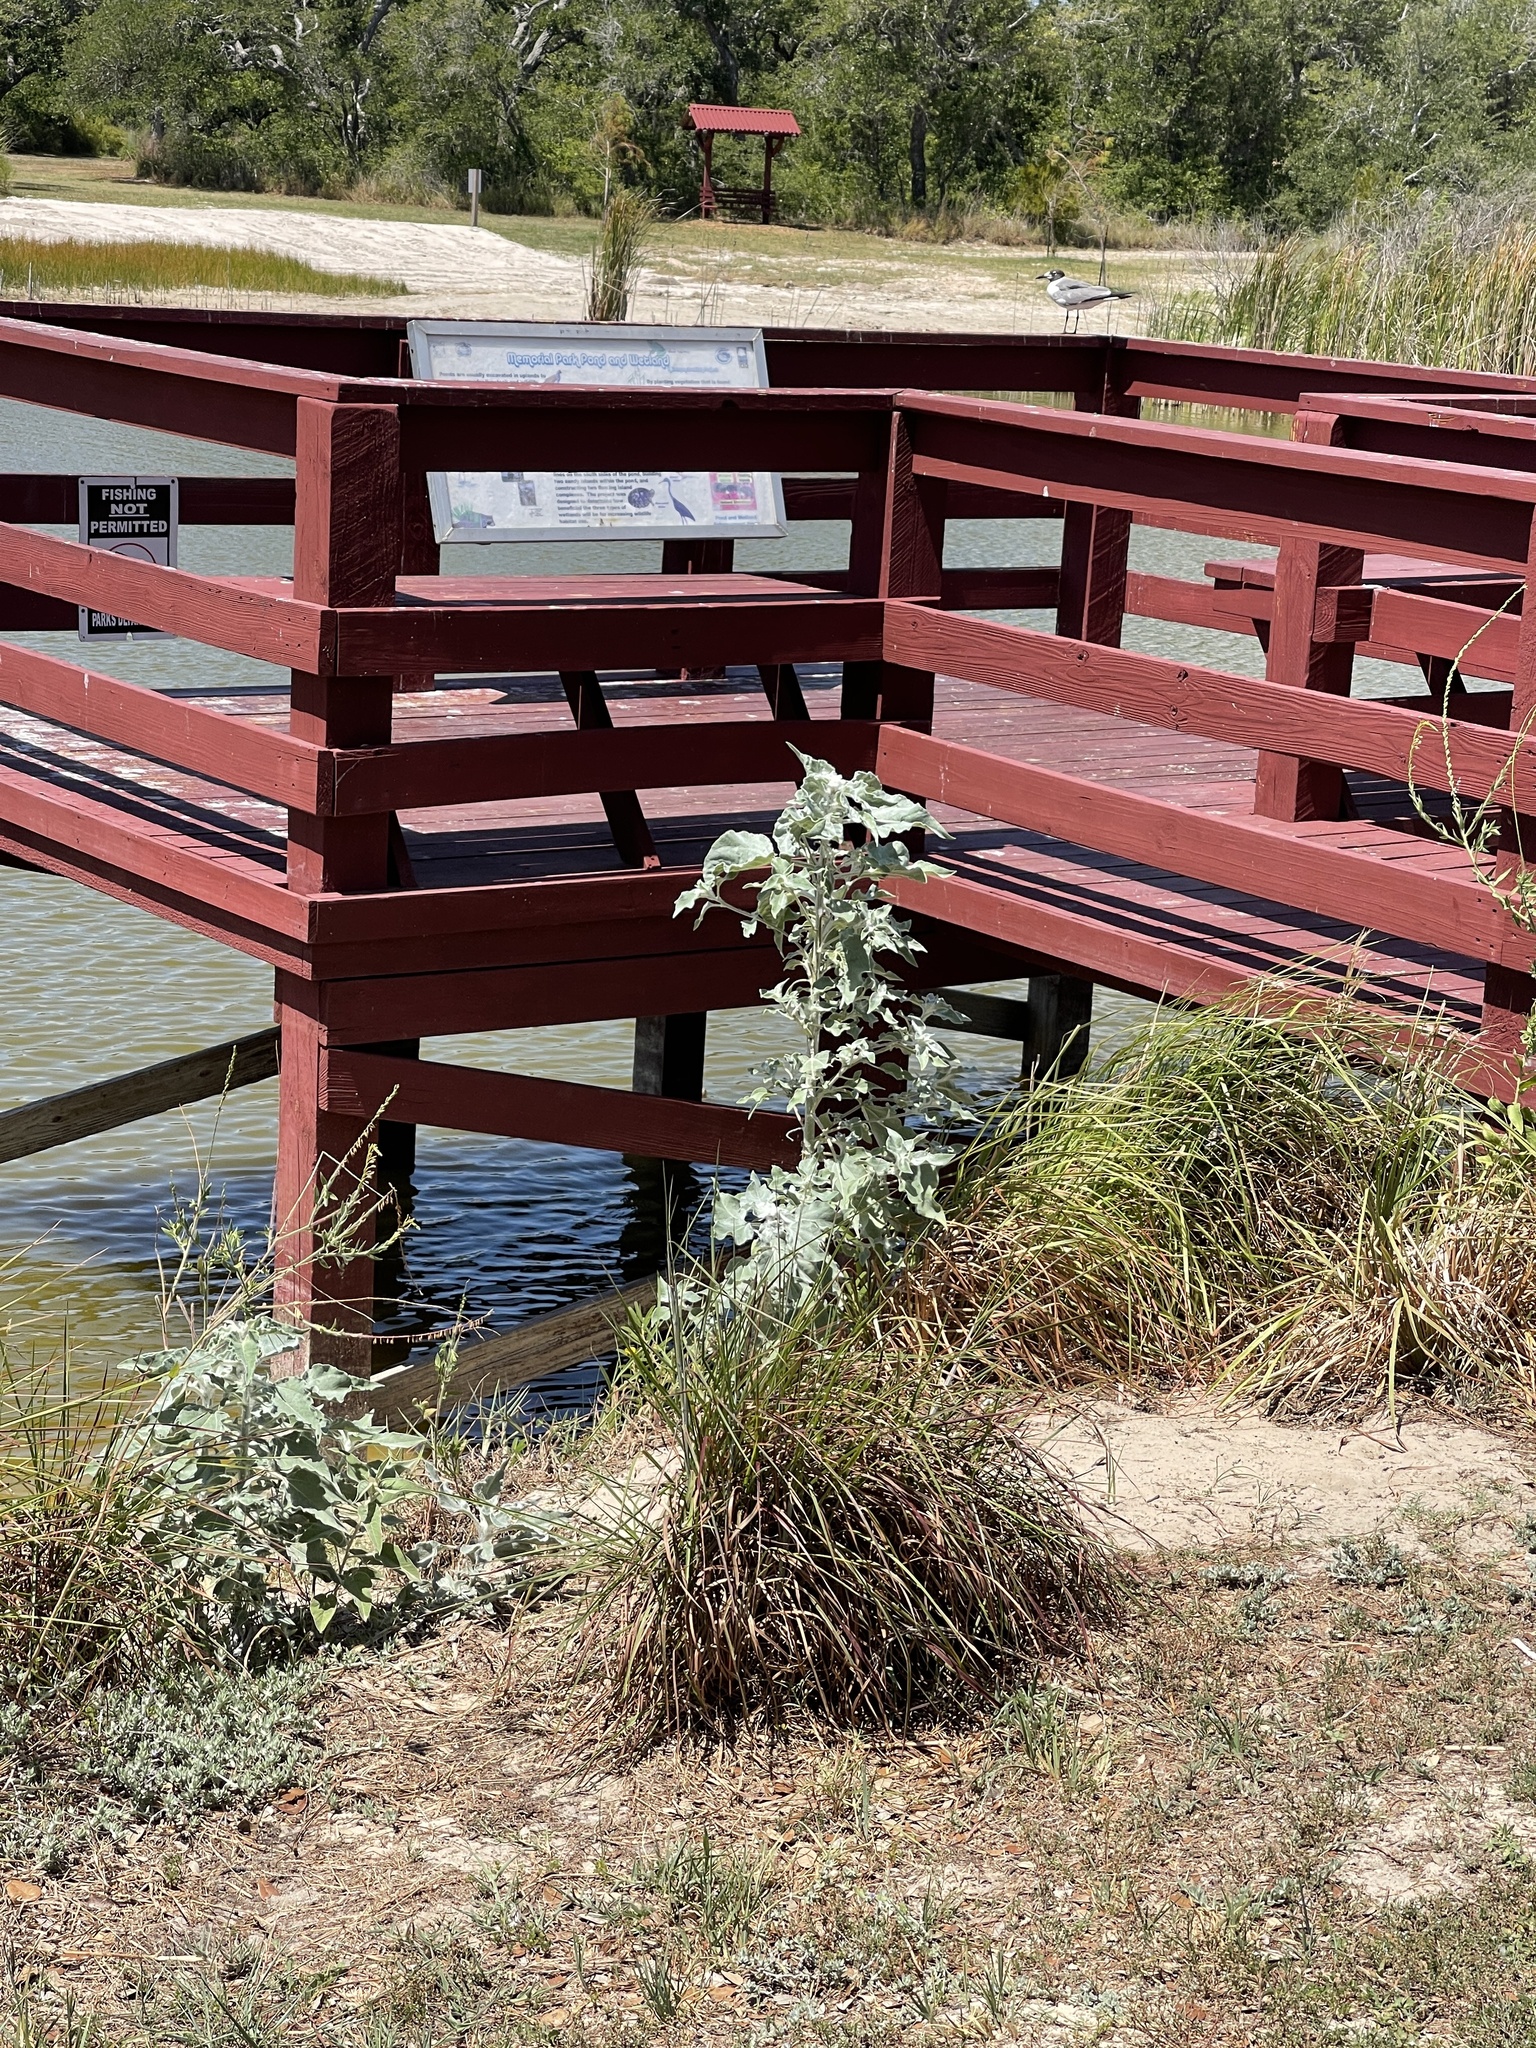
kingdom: Plantae
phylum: Tracheophyta
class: Magnoliopsida
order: Asterales
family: Asteraceae
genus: Helianthus
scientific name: Helianthus argophyllus
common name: Silverleaf sunflower
